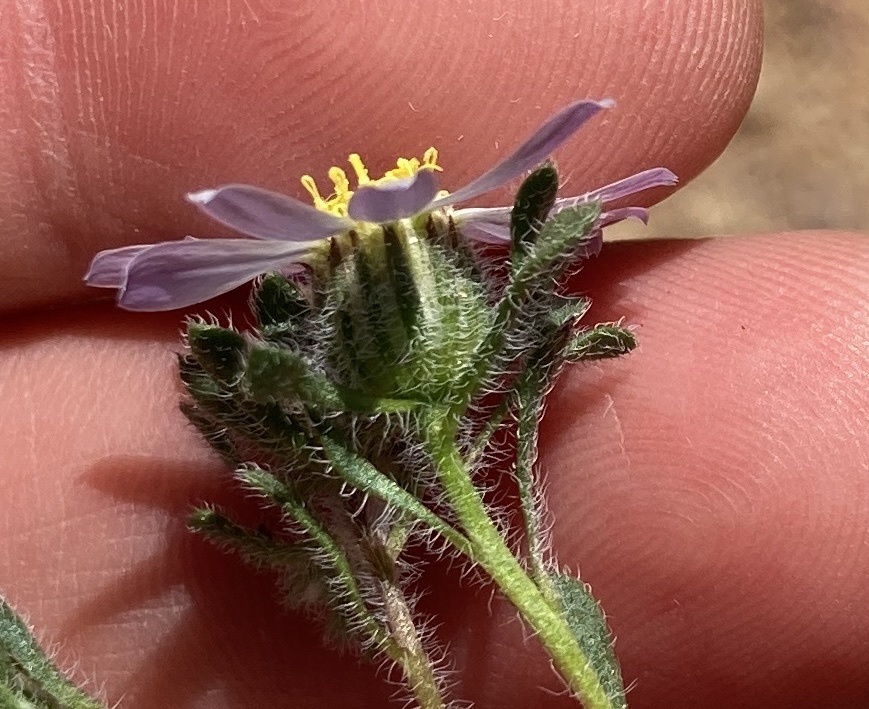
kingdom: Plantae
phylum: Tracheophyta
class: Magnoliopsida
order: Asterales
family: Asteraceae
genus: Monoptilon
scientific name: Monoptilon bellioides
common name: Bristly desertstar
